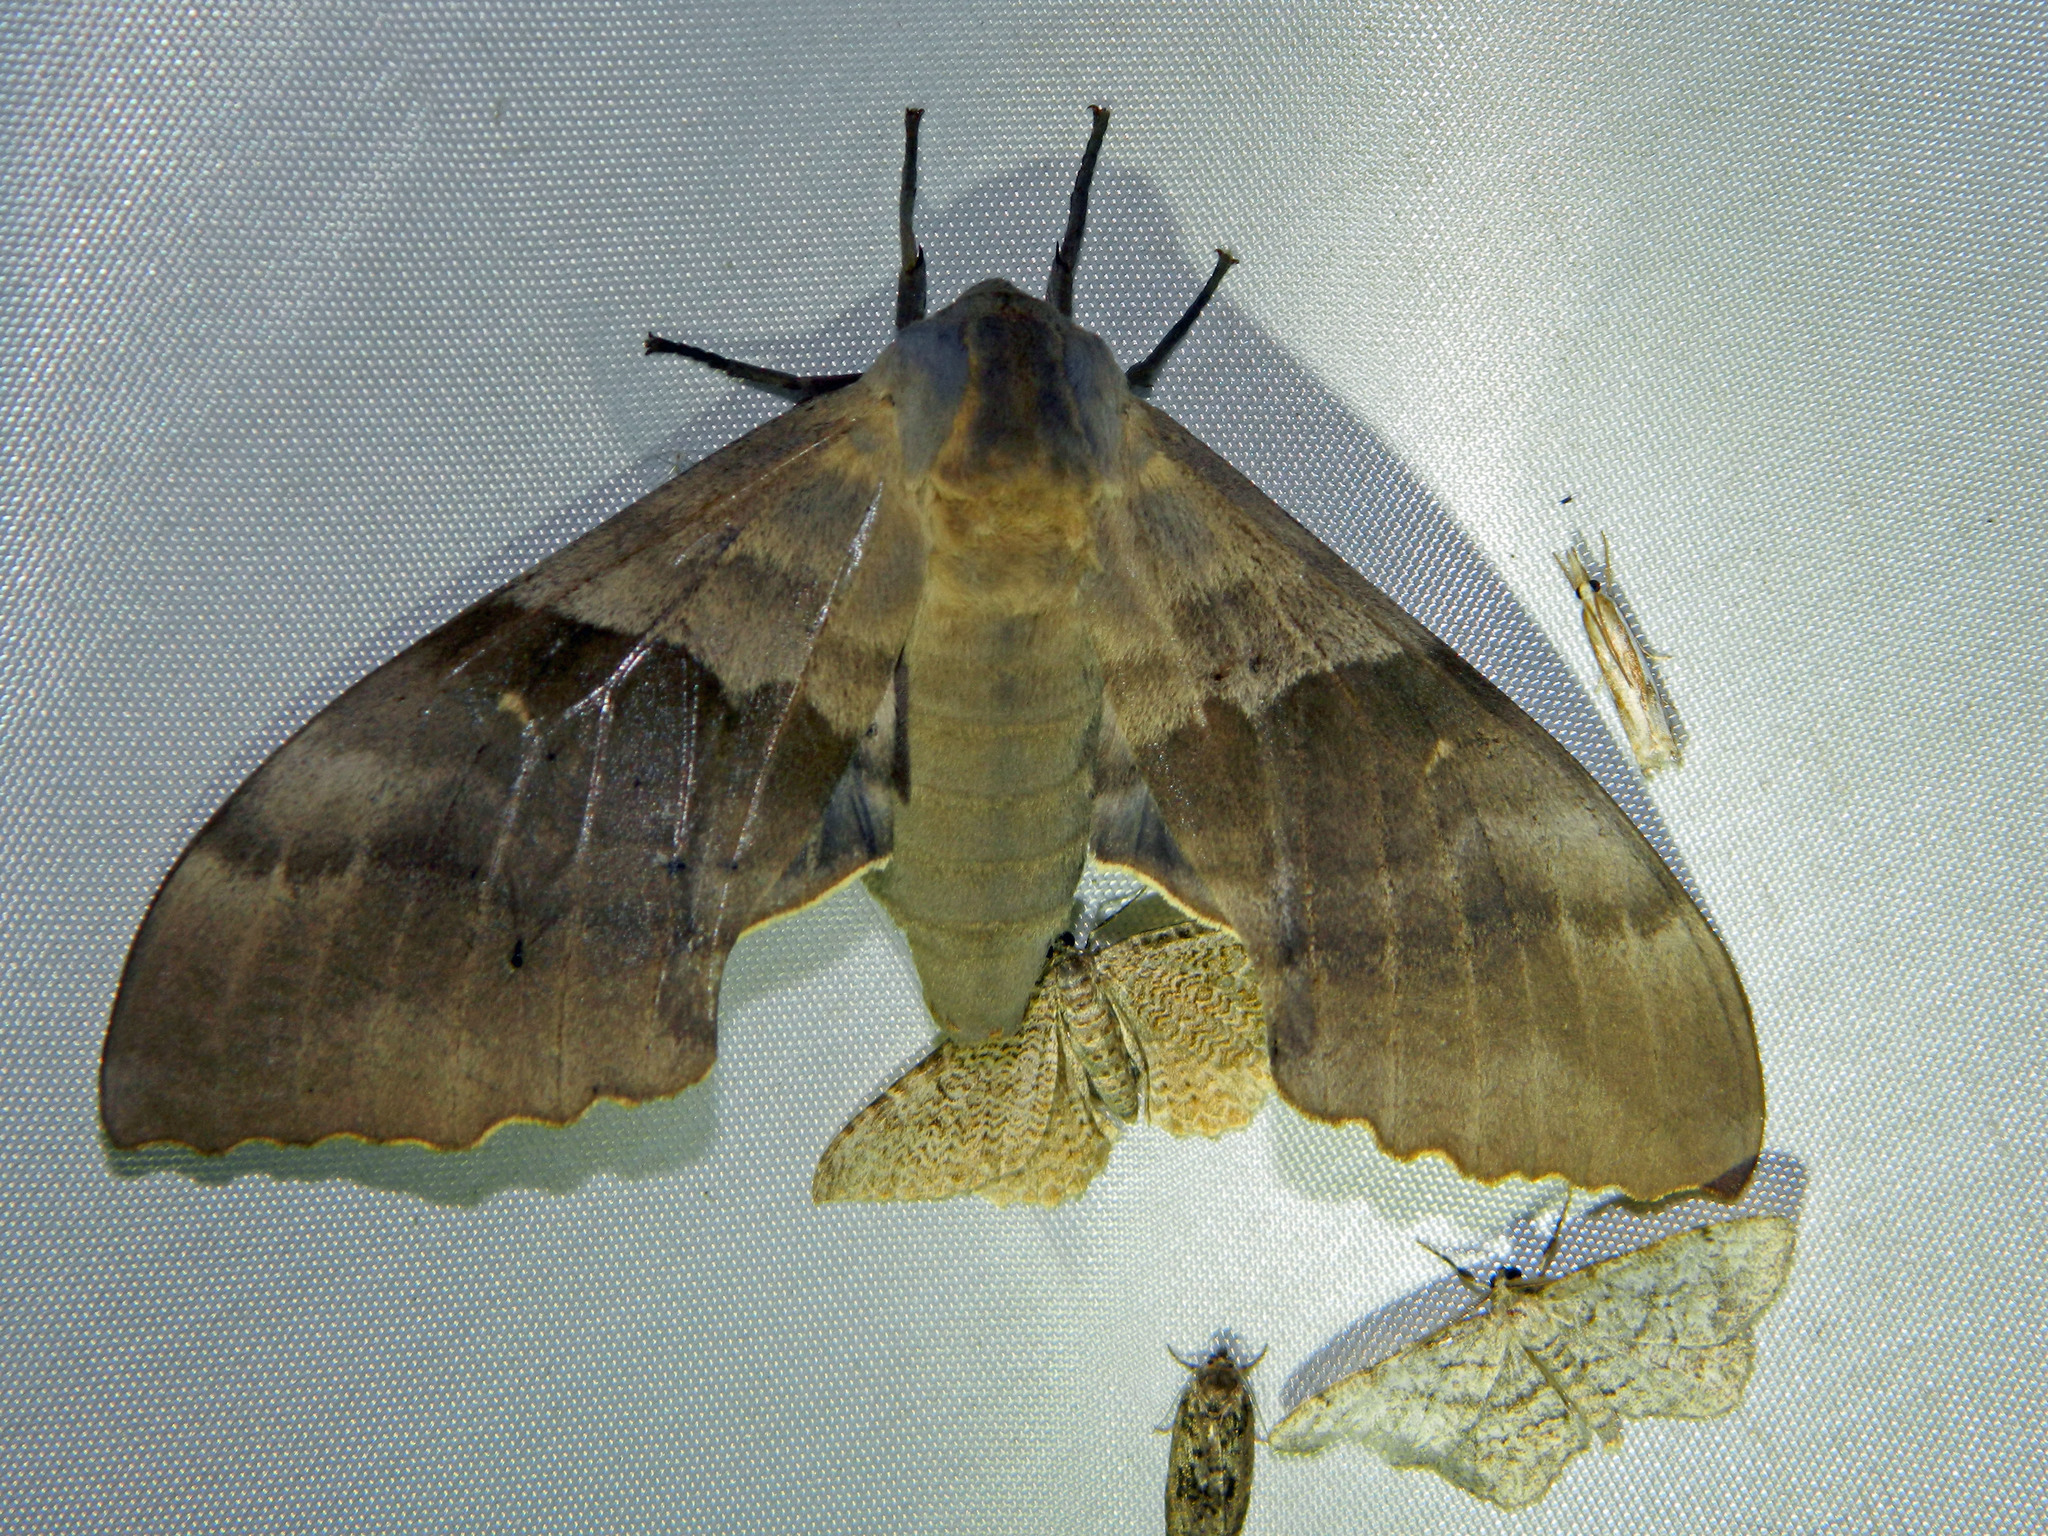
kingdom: Animalia
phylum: Arthropoda
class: Insecta
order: Lepidoptera
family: Sphingidae
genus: Pachysphinx
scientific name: Pachysphinx modesta
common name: Big poplar sphinx
